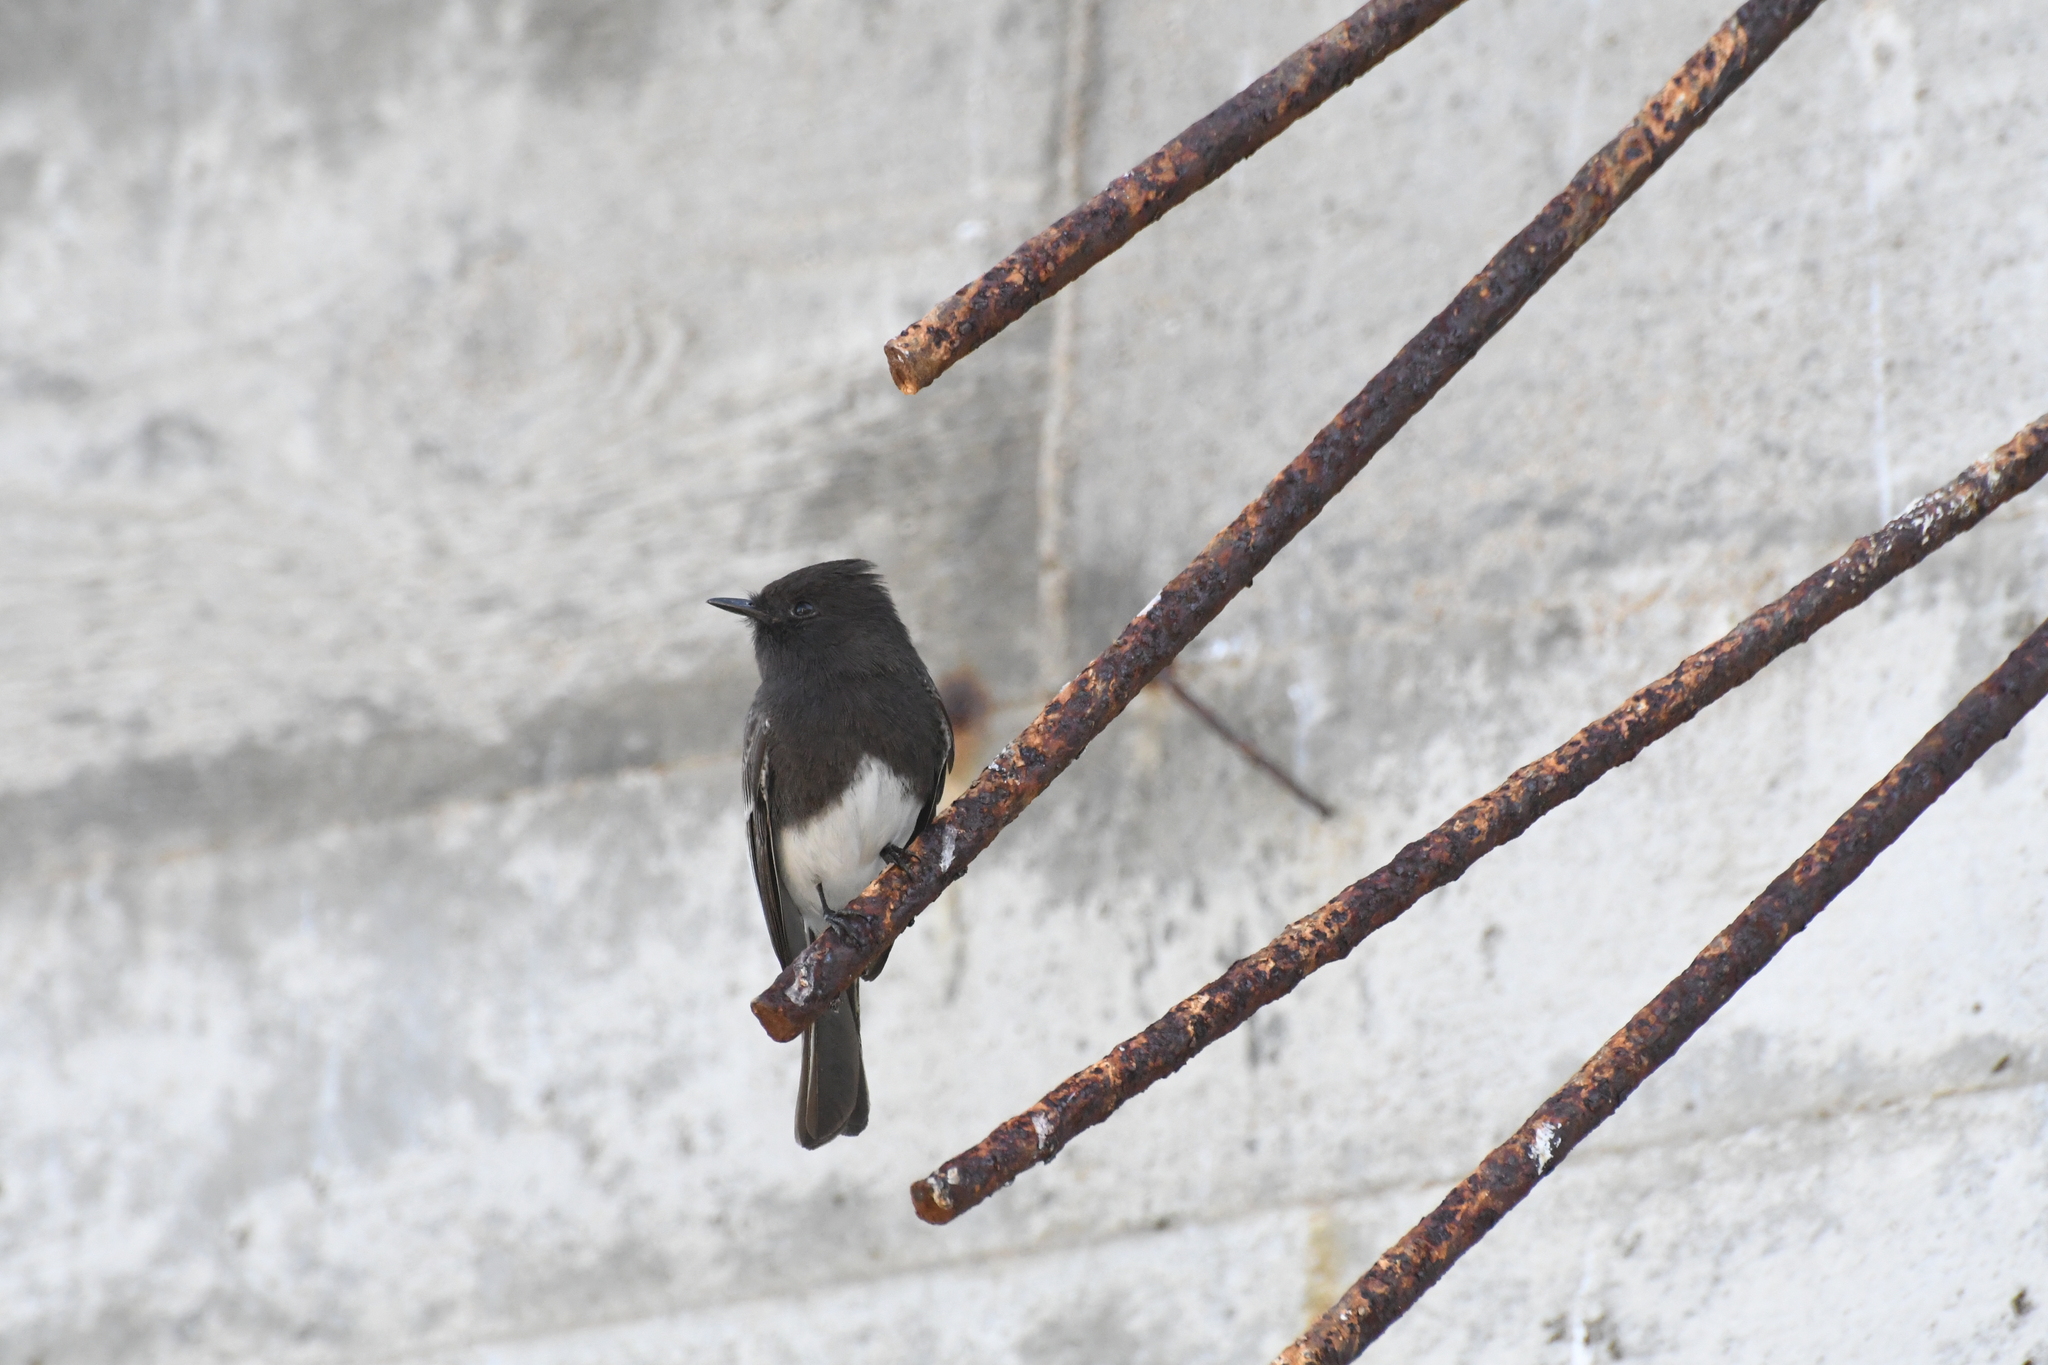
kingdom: Animalia
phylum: Chordata
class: Aves
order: Passeriformes
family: Tyrannidae
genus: Sayornis
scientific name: Sayornis nigricans
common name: Black phoebe
